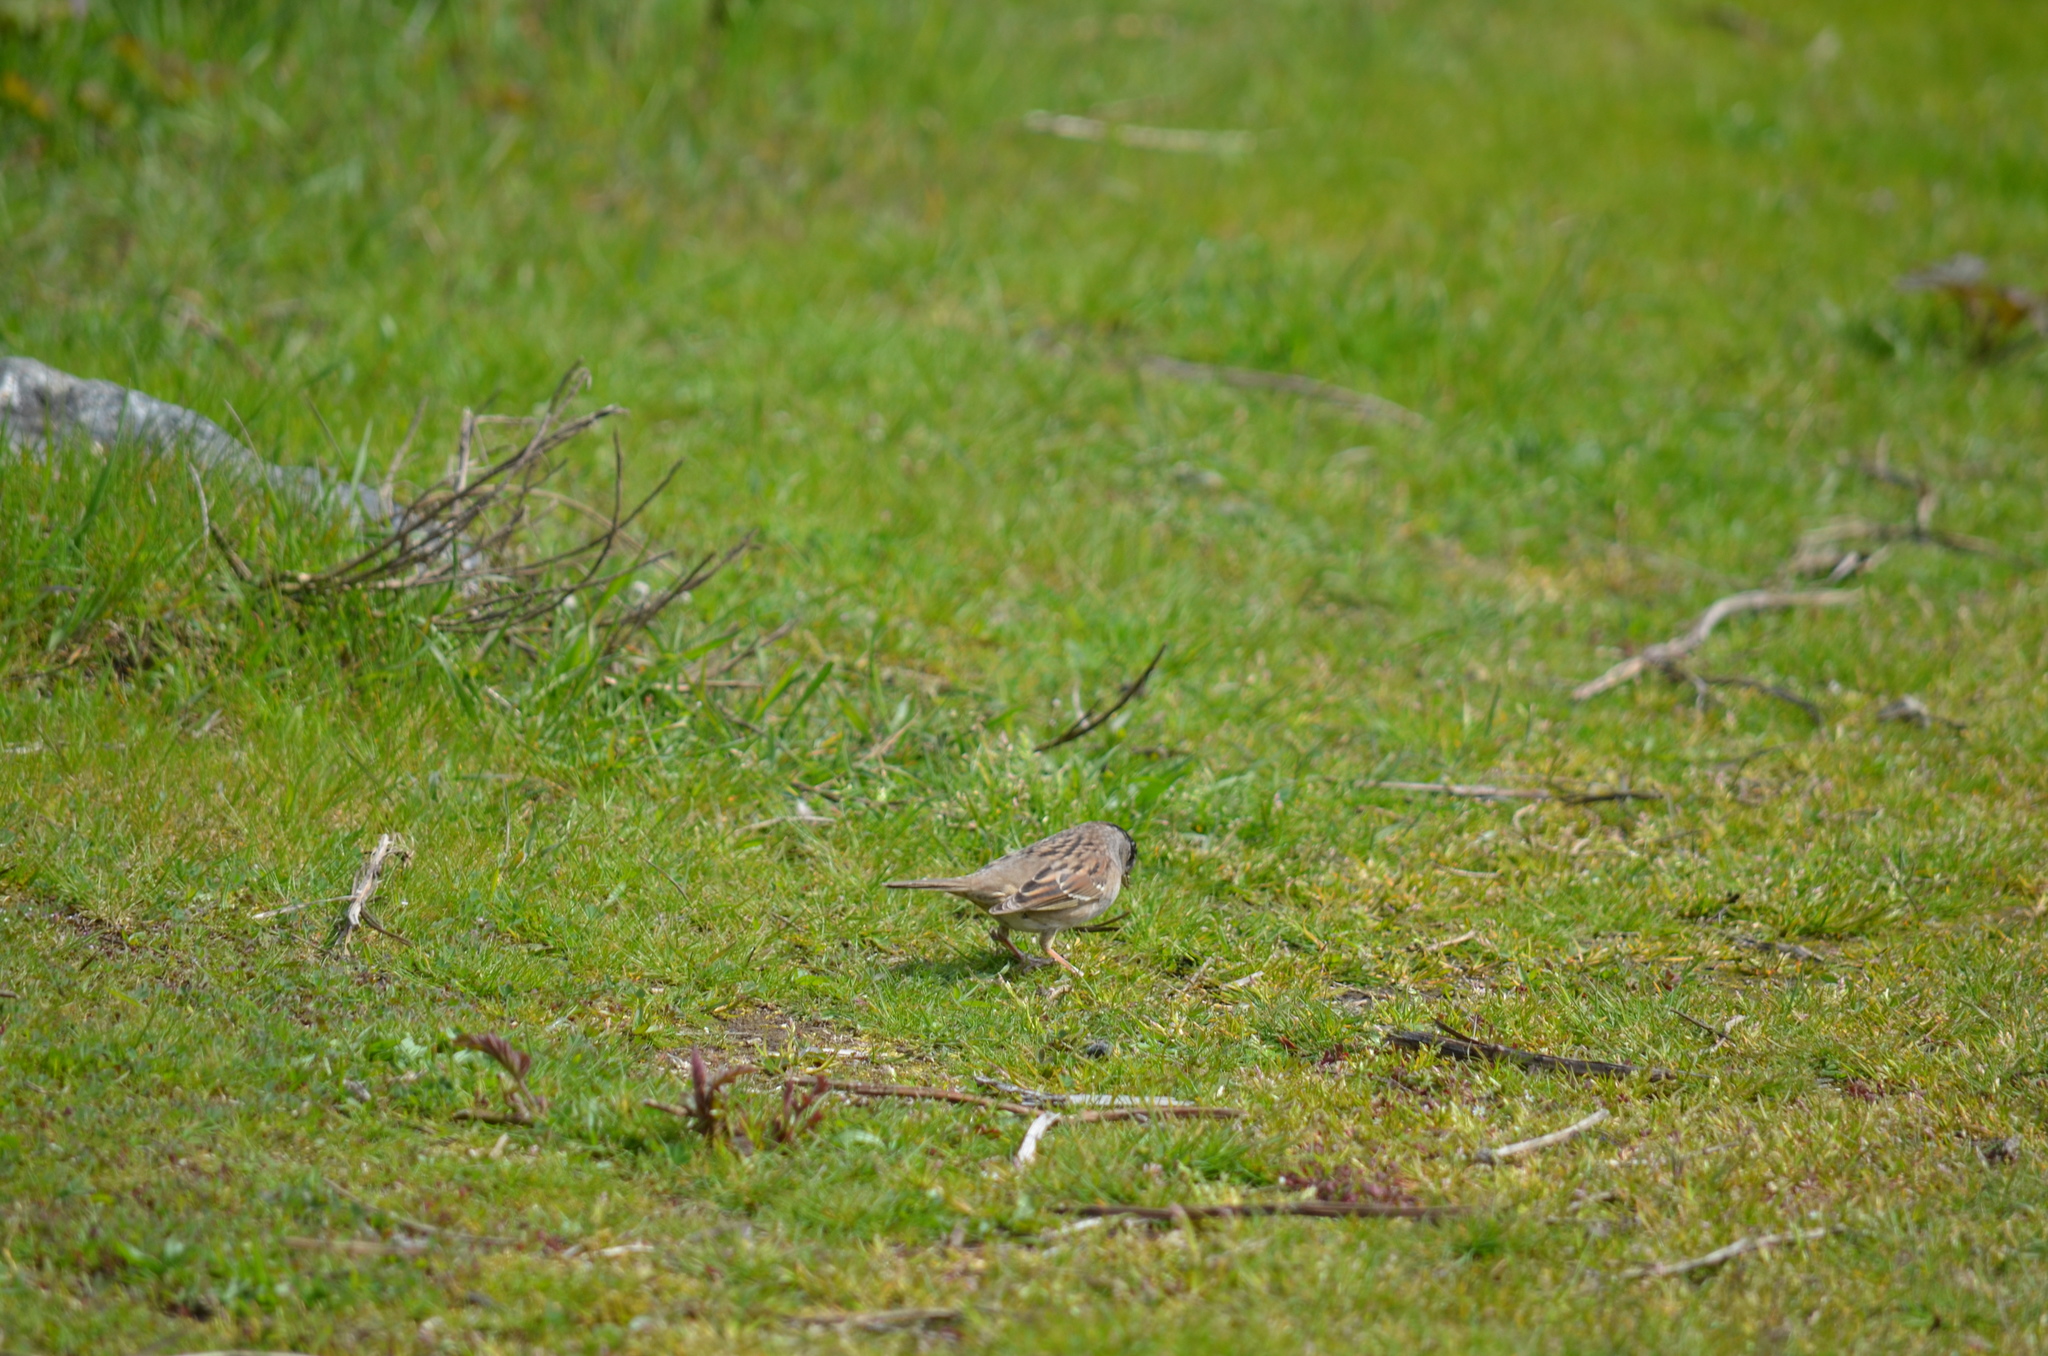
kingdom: Animalia
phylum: Chordata
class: Aves
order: Passeriformes
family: Passerellidae
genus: Zonotrichia
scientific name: Zonotrichia atricapilla
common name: Golden-crowned sparrow
